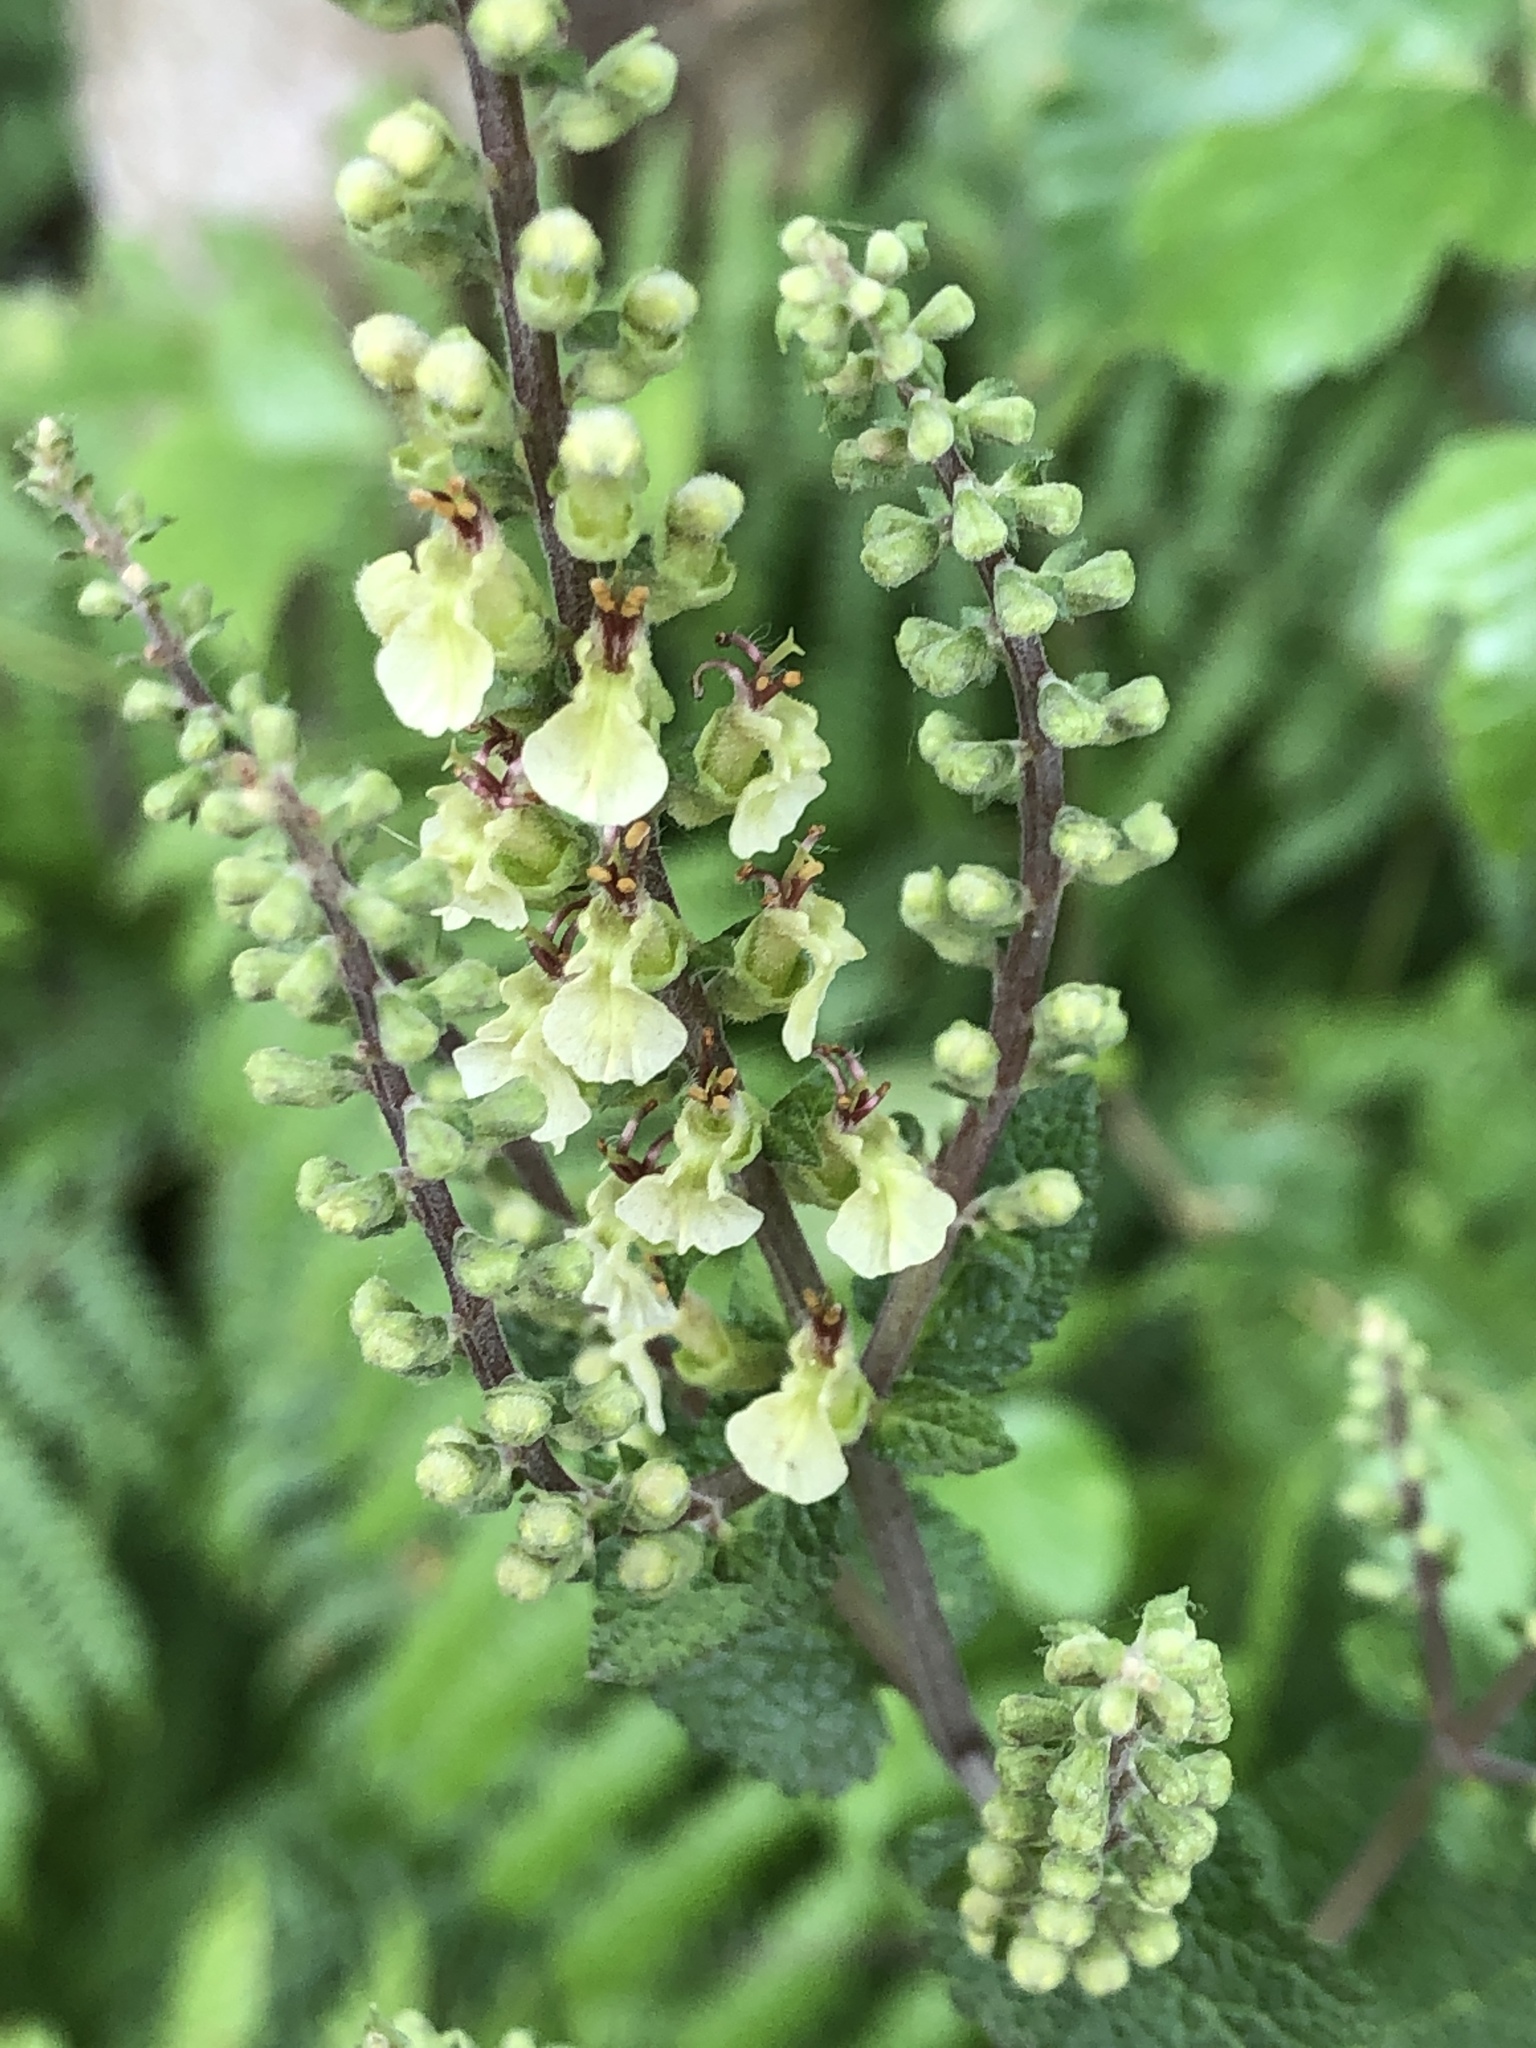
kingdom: Plantae
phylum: Tracheophyta
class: Magnoliopsida
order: Lamiales
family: Lamiaceae
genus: Teucrium
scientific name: Teucrium scorodonia
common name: Woodland germander
